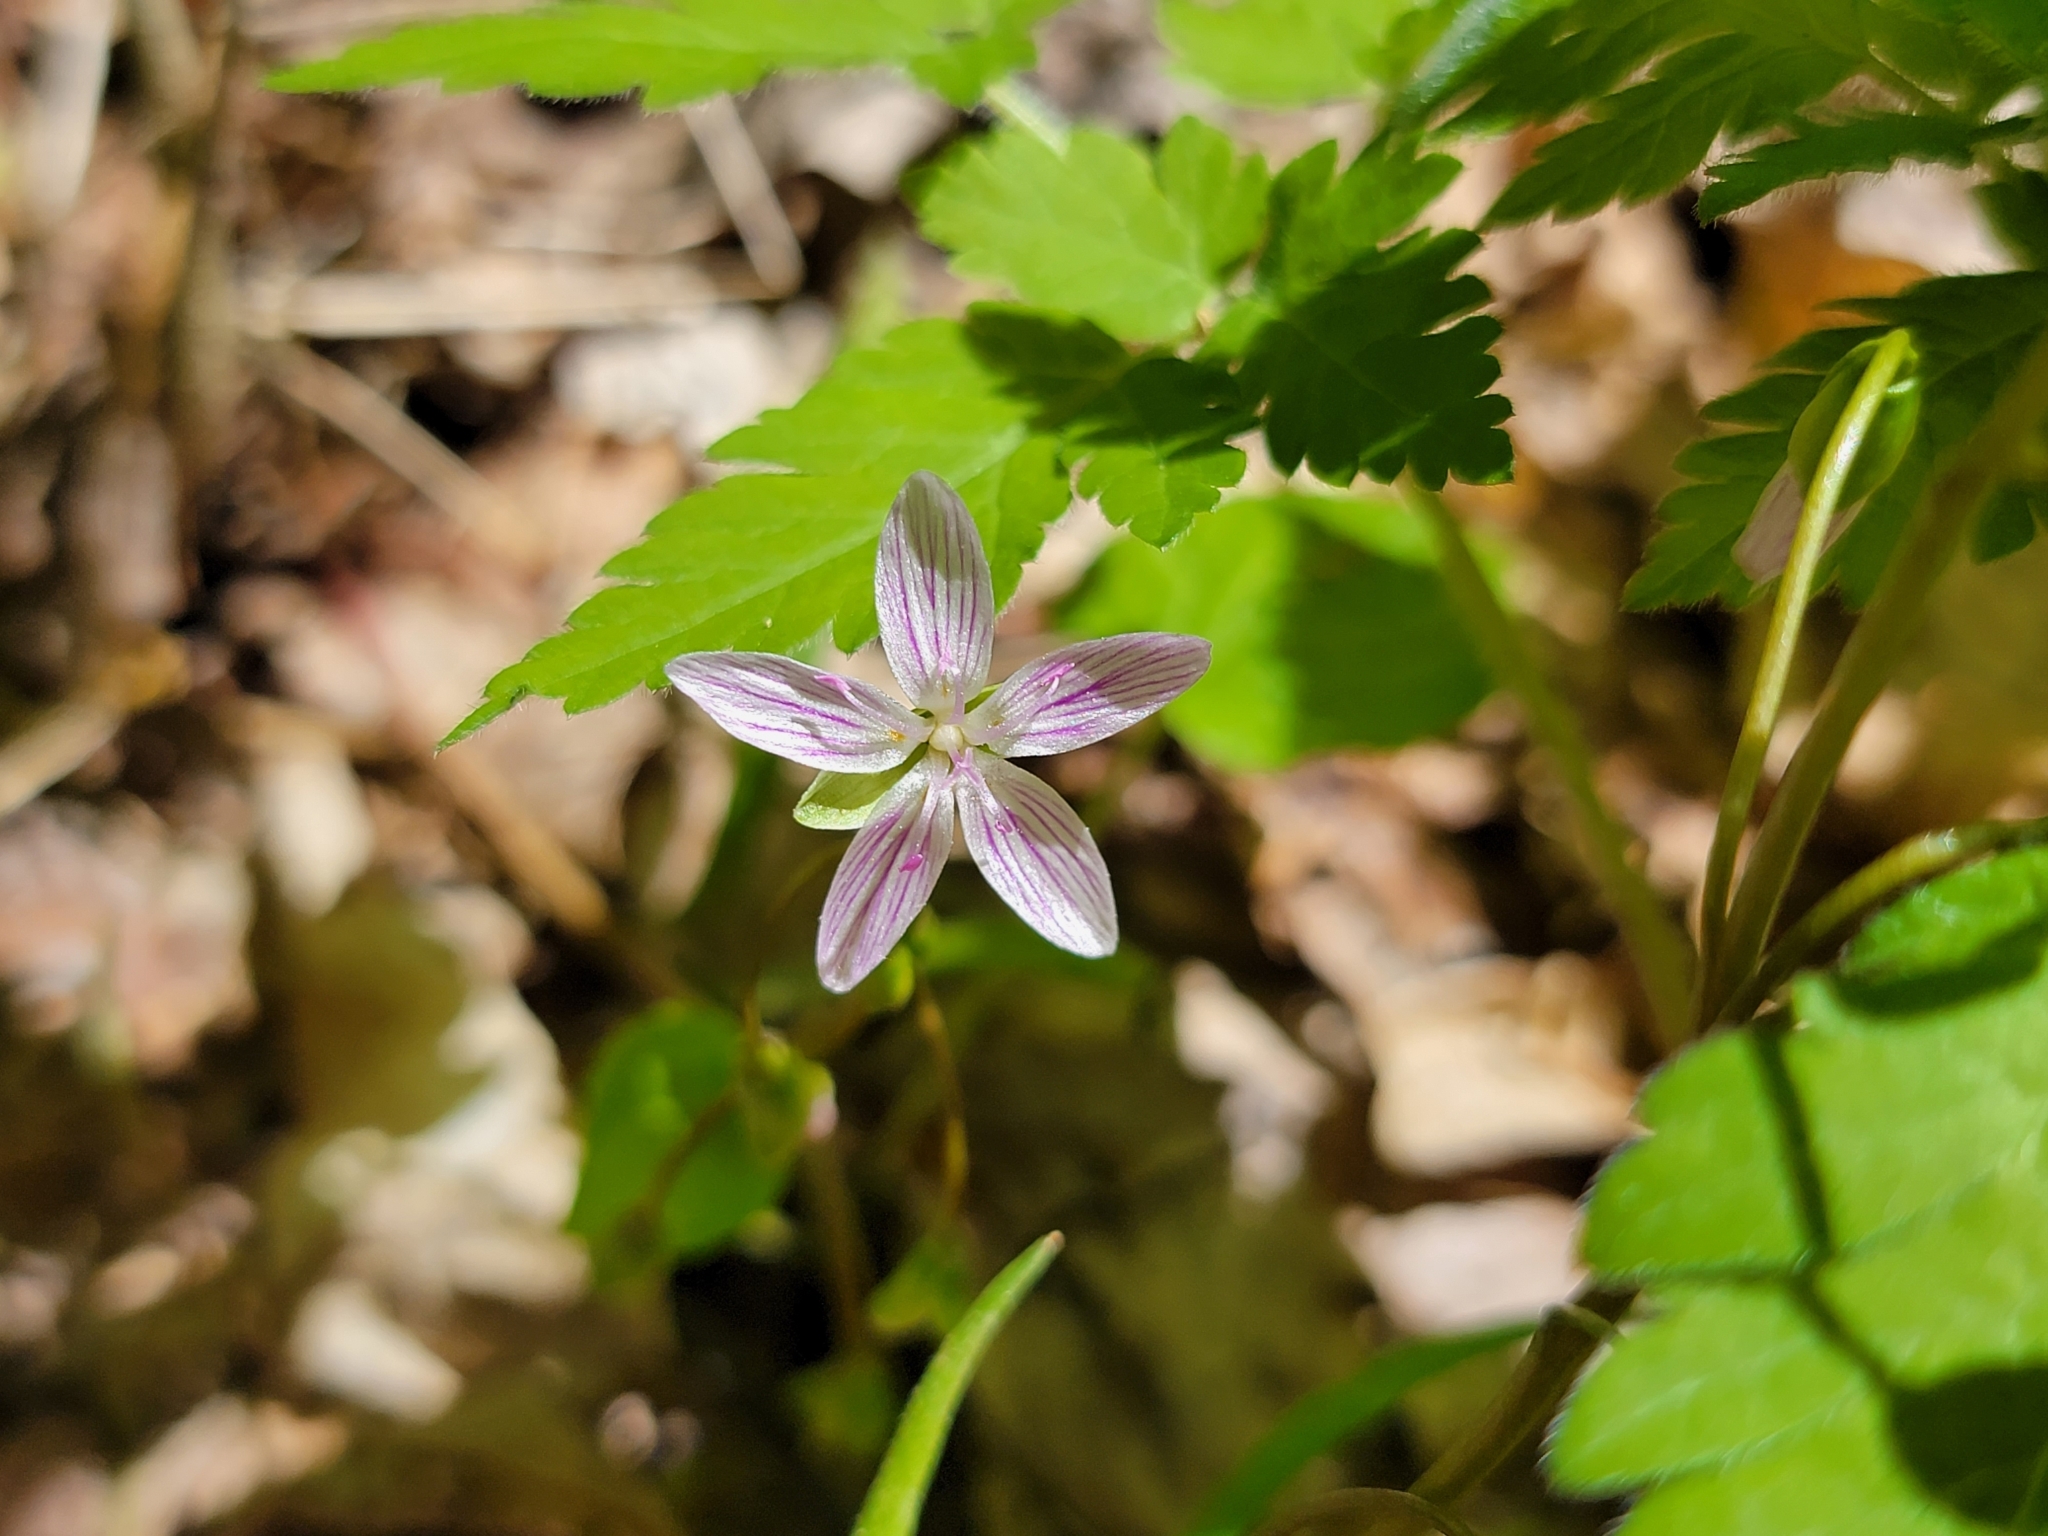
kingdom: Plantae
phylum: Tracheophyta
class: Magnoliopsida
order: Caryophyllales
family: Montiaceae
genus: Claytonia
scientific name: Claytonia virginica
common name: Virginia springbeauty
